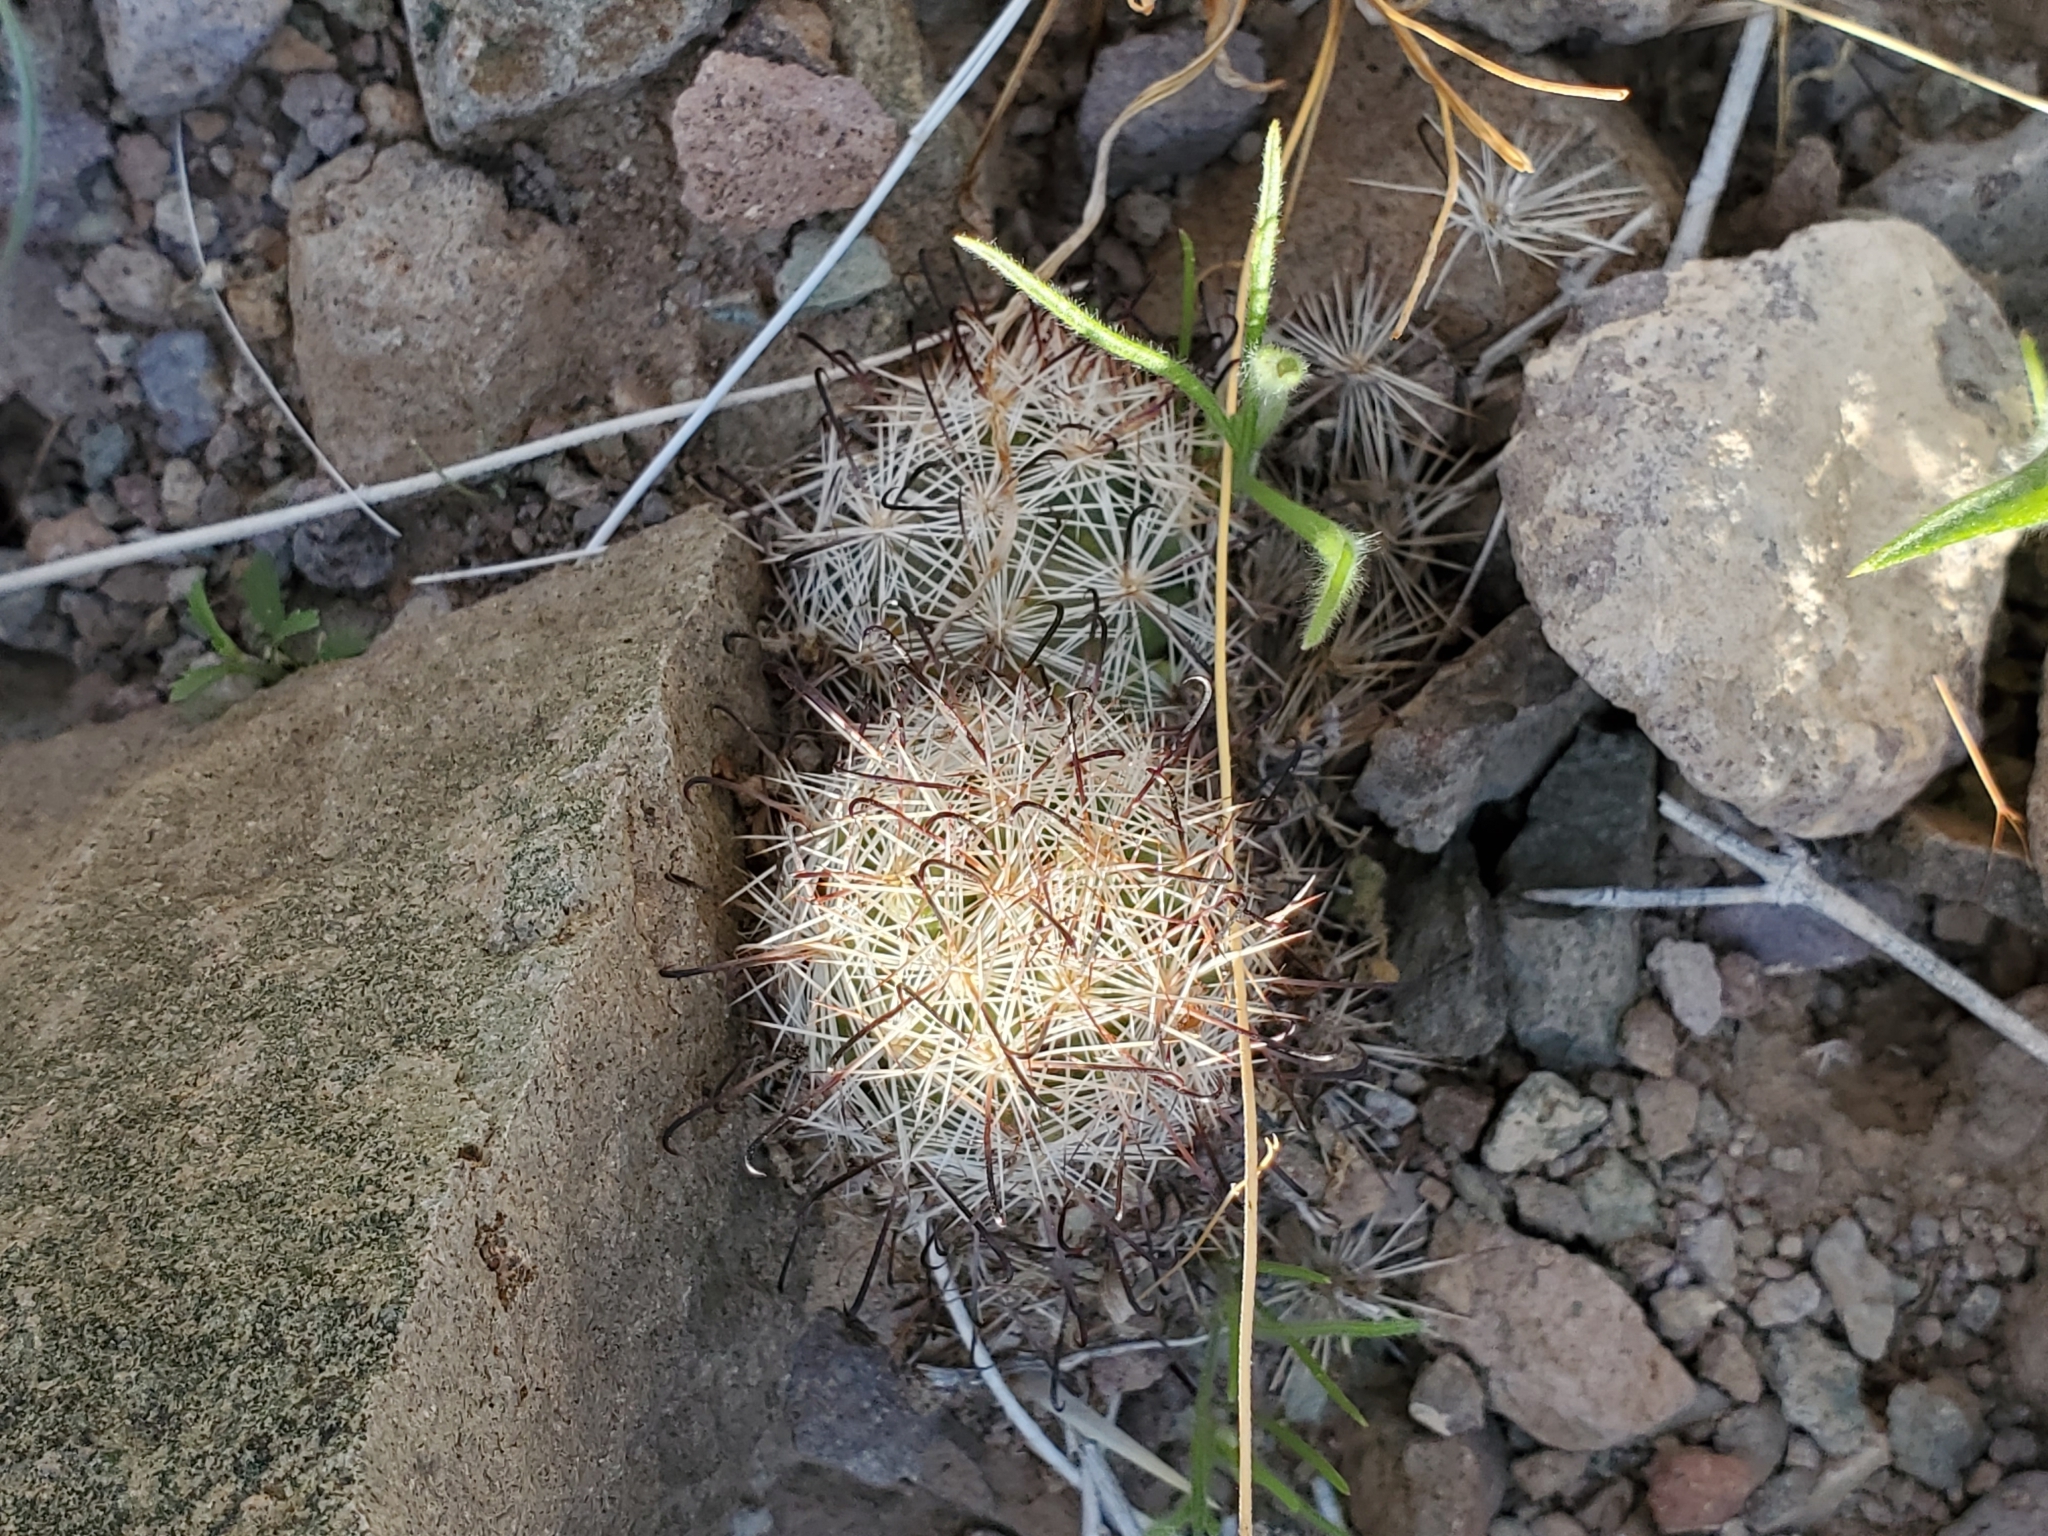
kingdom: Plantae
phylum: Tracheophyta
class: Magnoliopsida
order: Caryophyllales
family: Cactaceae
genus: Cochemiea
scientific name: Cochemiea tetrancistra
